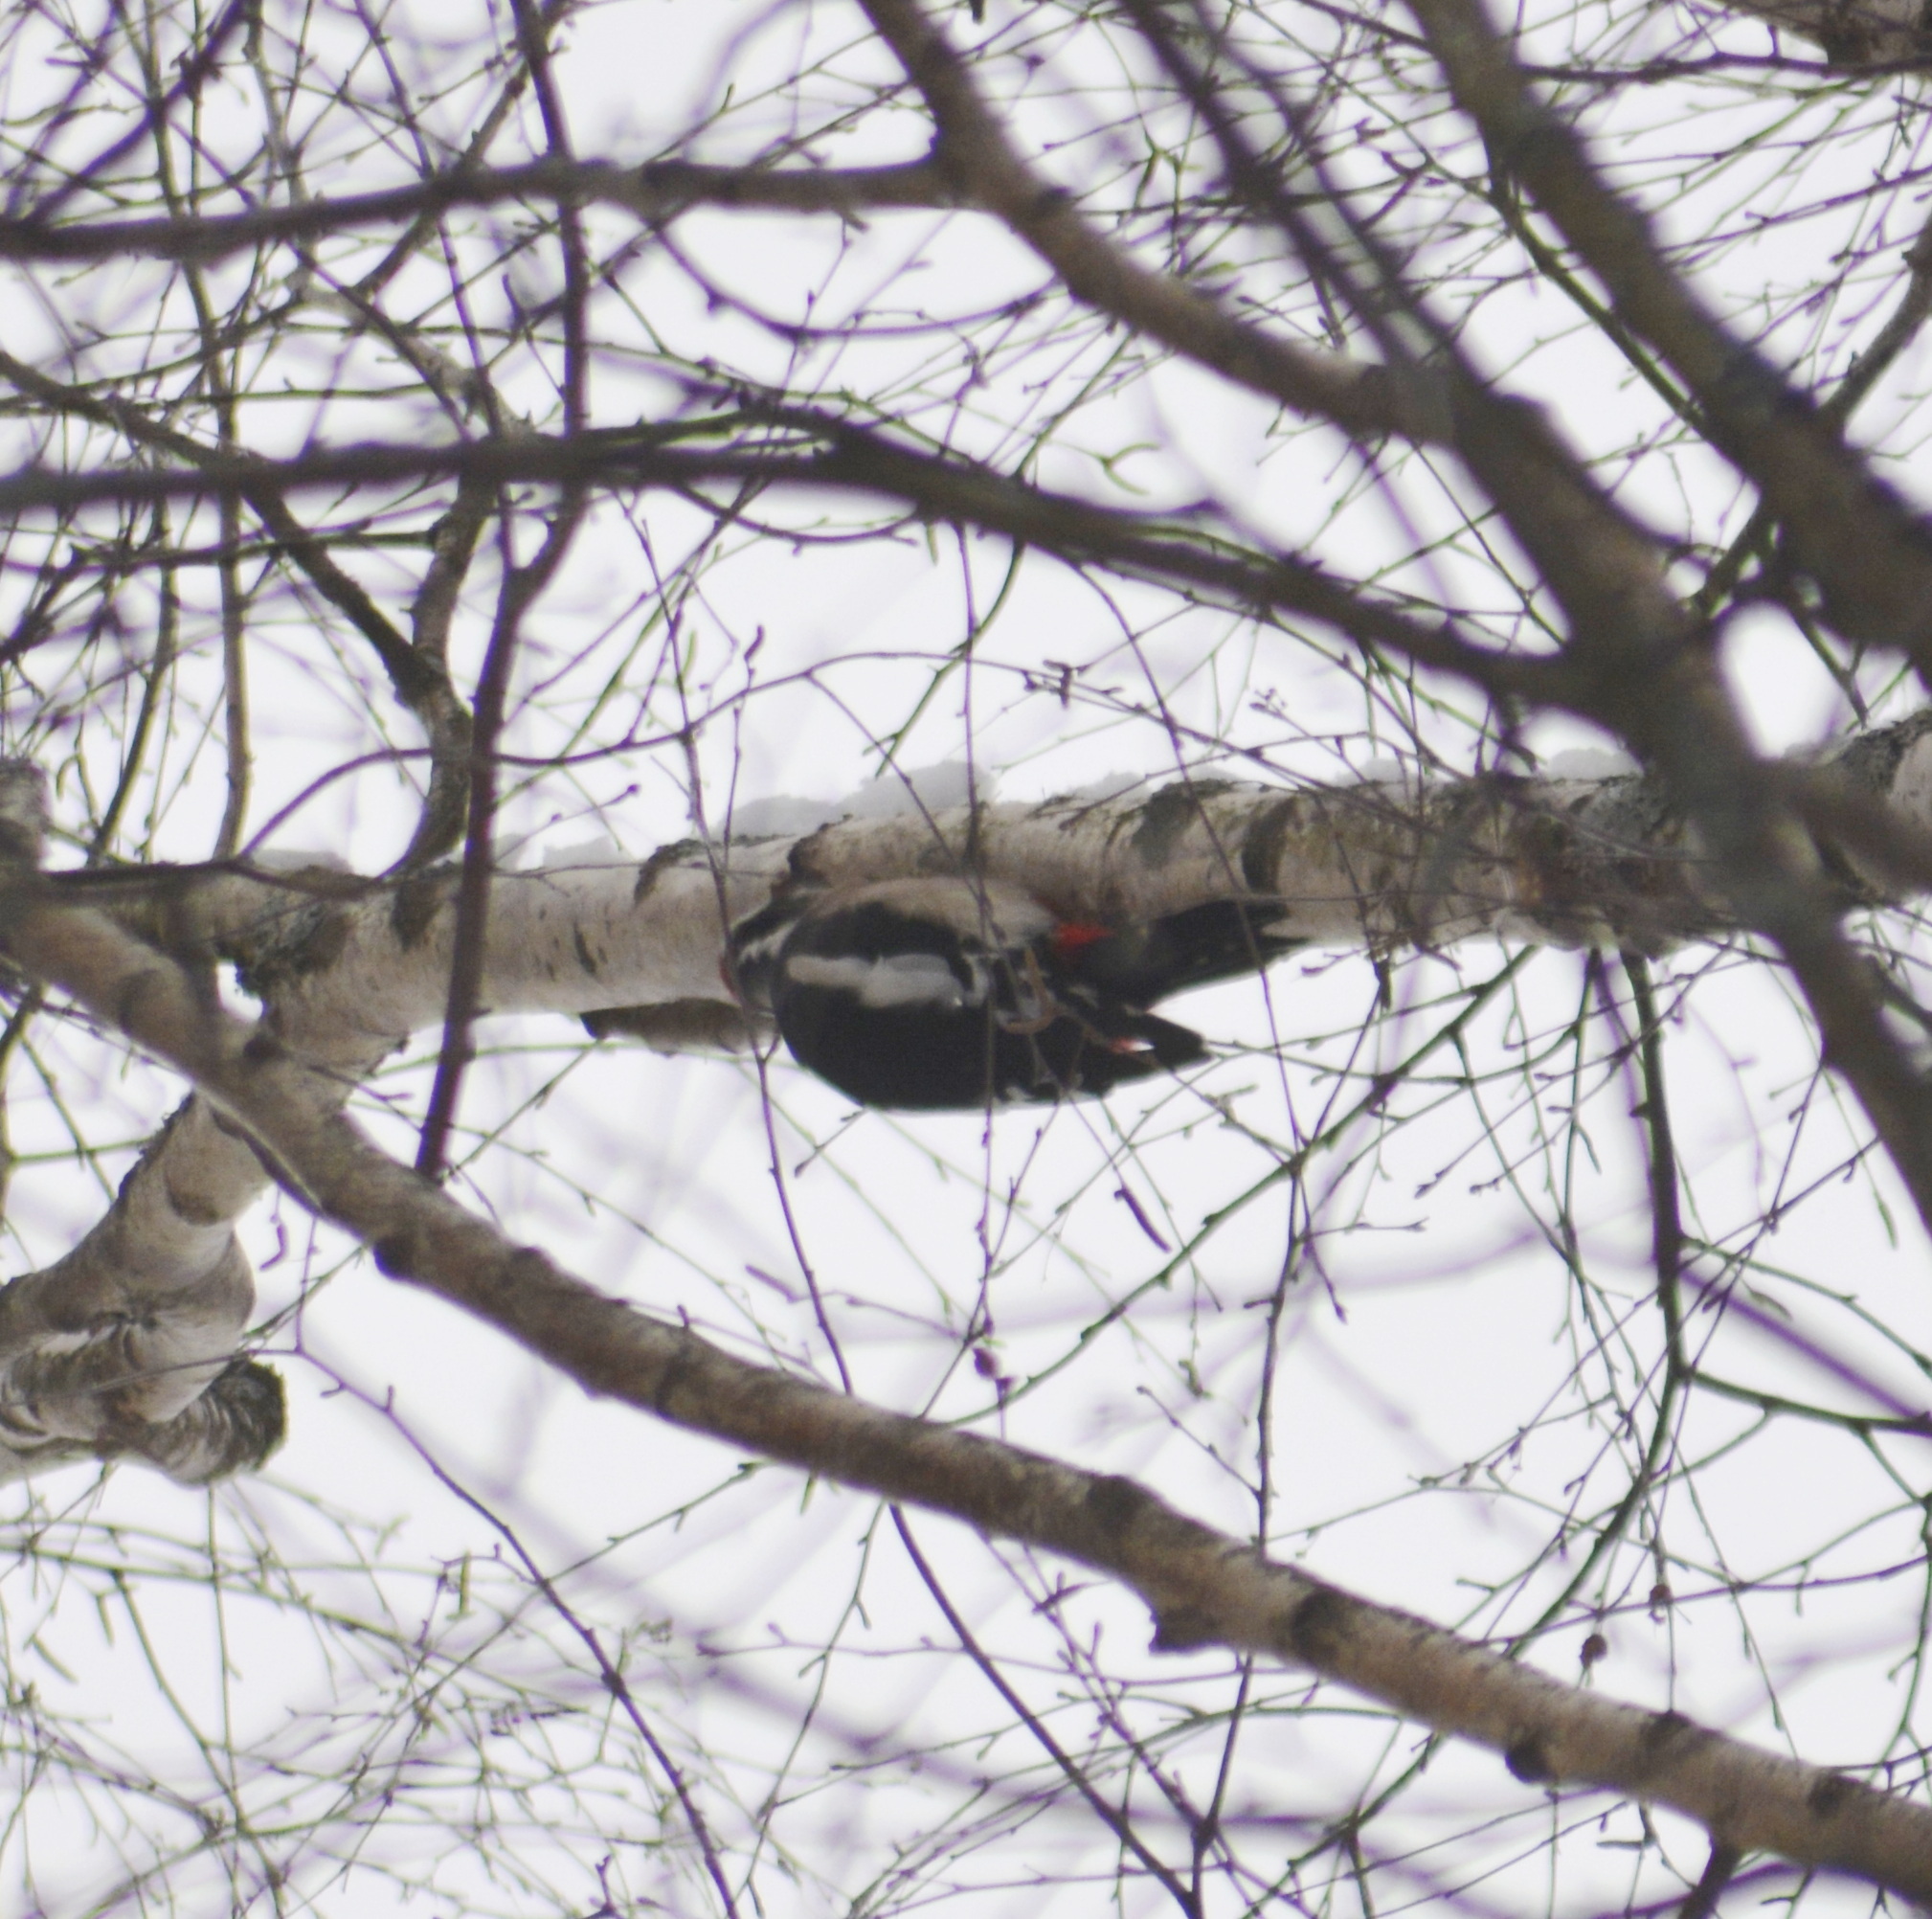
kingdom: Animalia
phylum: Chordata
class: Aves
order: Piciformes
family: Picidae
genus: Dendrocopos
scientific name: Dendrocopos major
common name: Great spotted woodpecker
